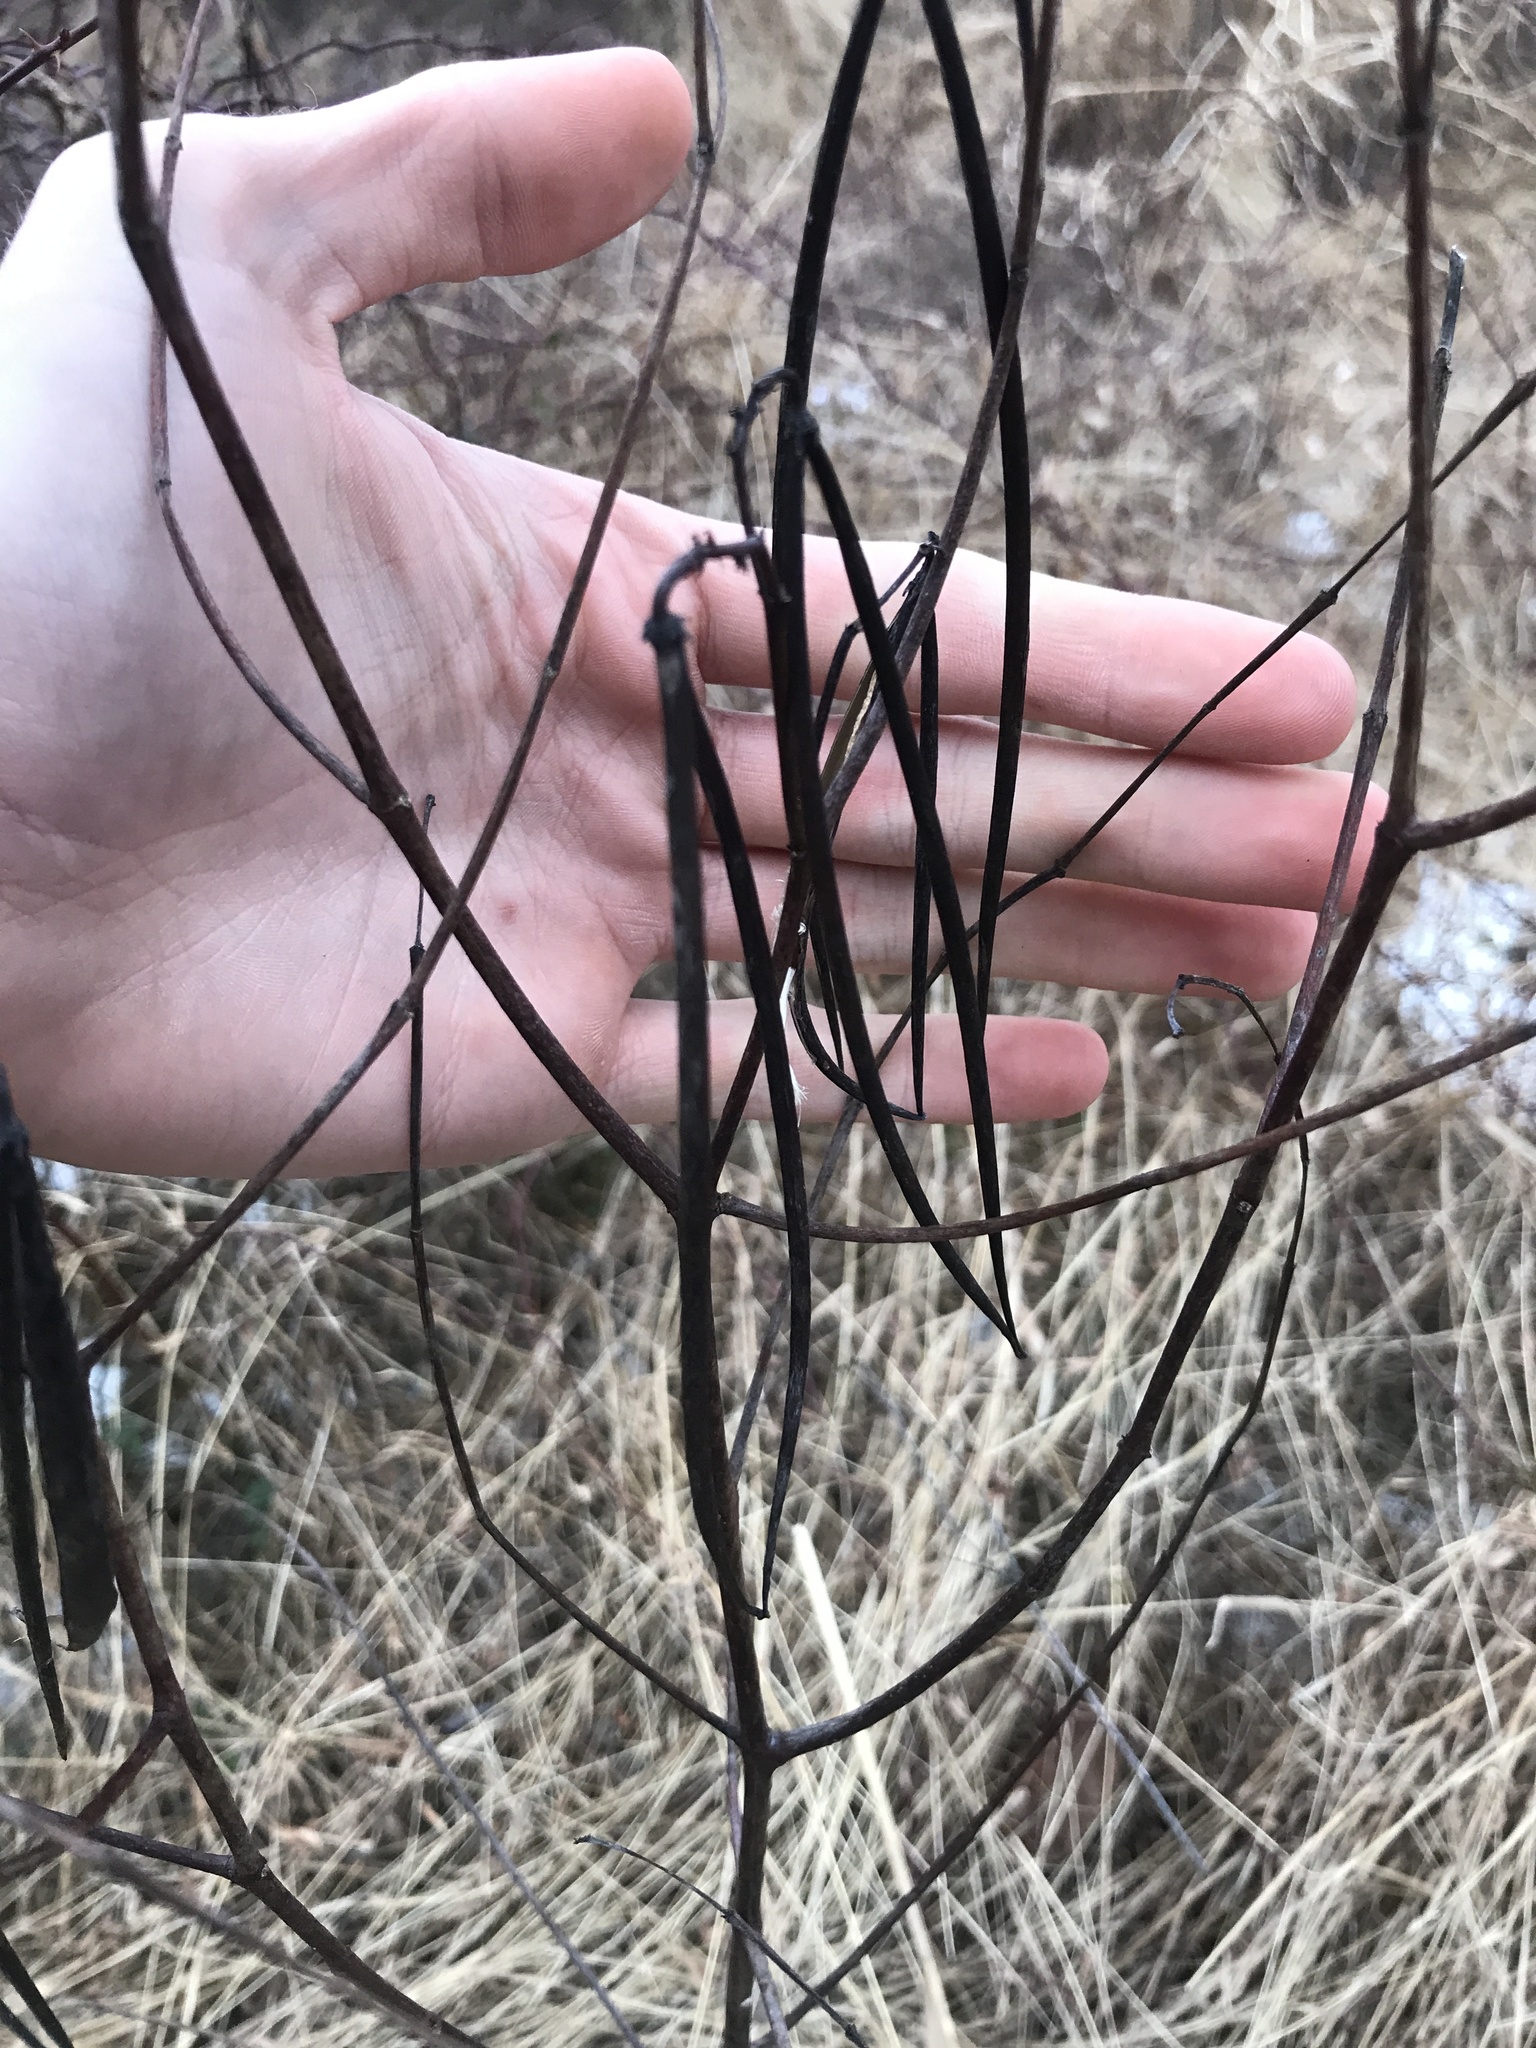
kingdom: Plantae
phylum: Tracheophyta
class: Magnoliopsida
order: Gentianales
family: Apocynaceae
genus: Apocynum
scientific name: Apocynum cannabinum
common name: Hemp dogbane
